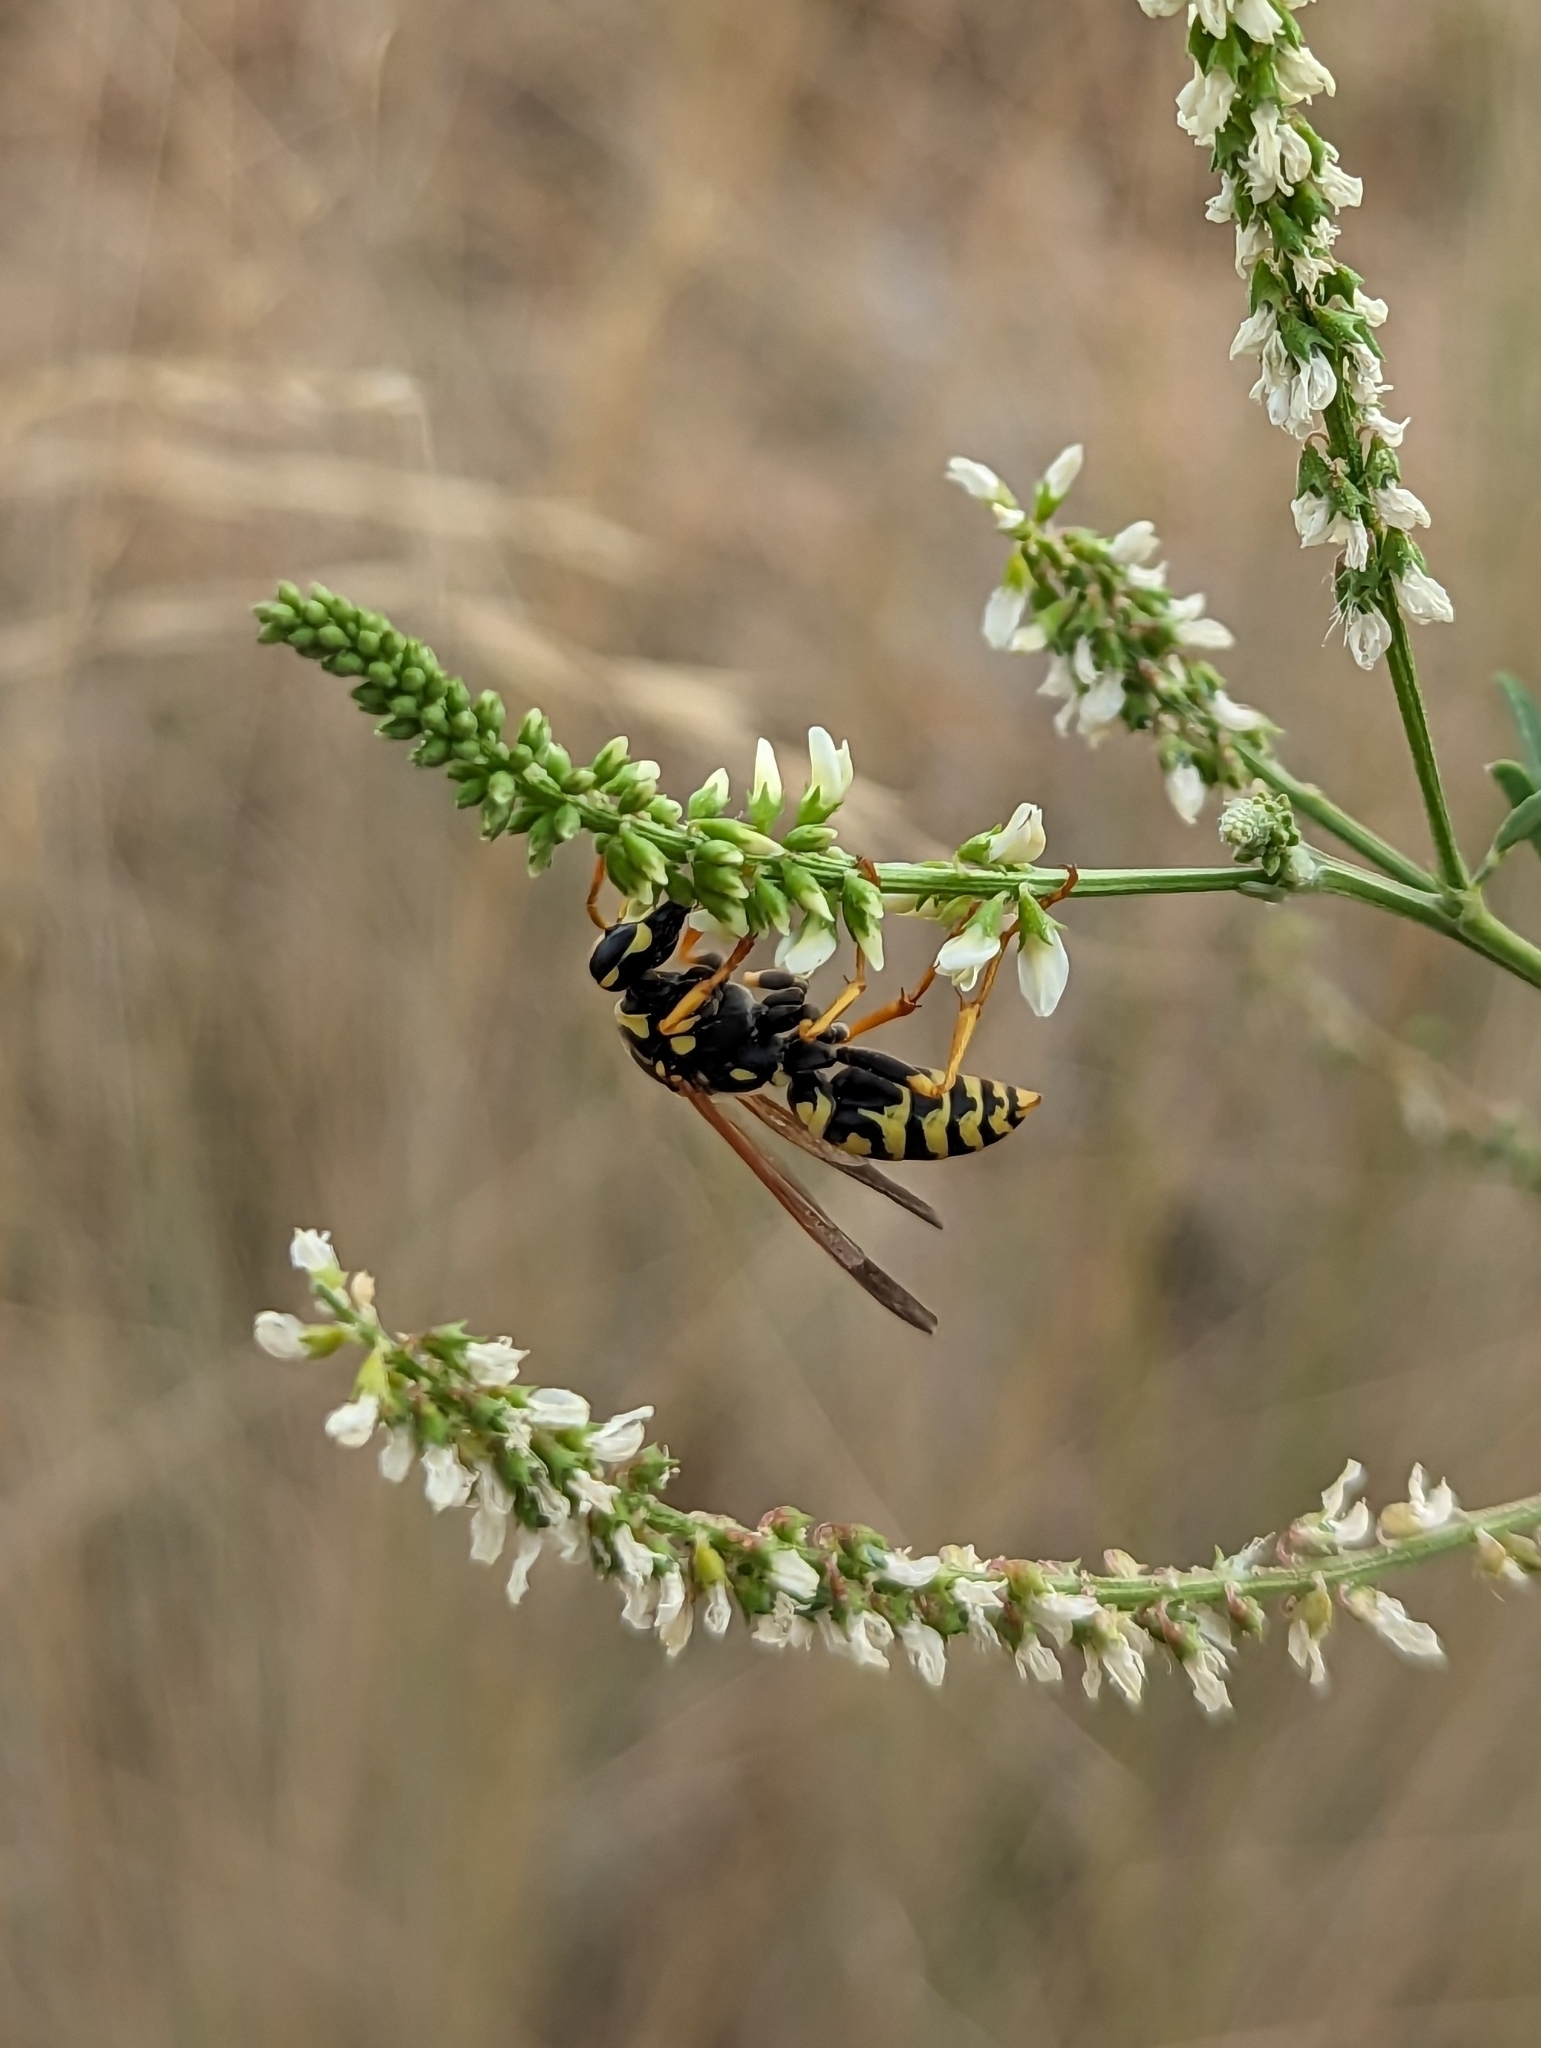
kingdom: Animalia
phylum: Arthropoda
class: Insecta
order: Hymenoptera
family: Eumenidae
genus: Polistes
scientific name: Polistes dominula
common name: Paper wasp
